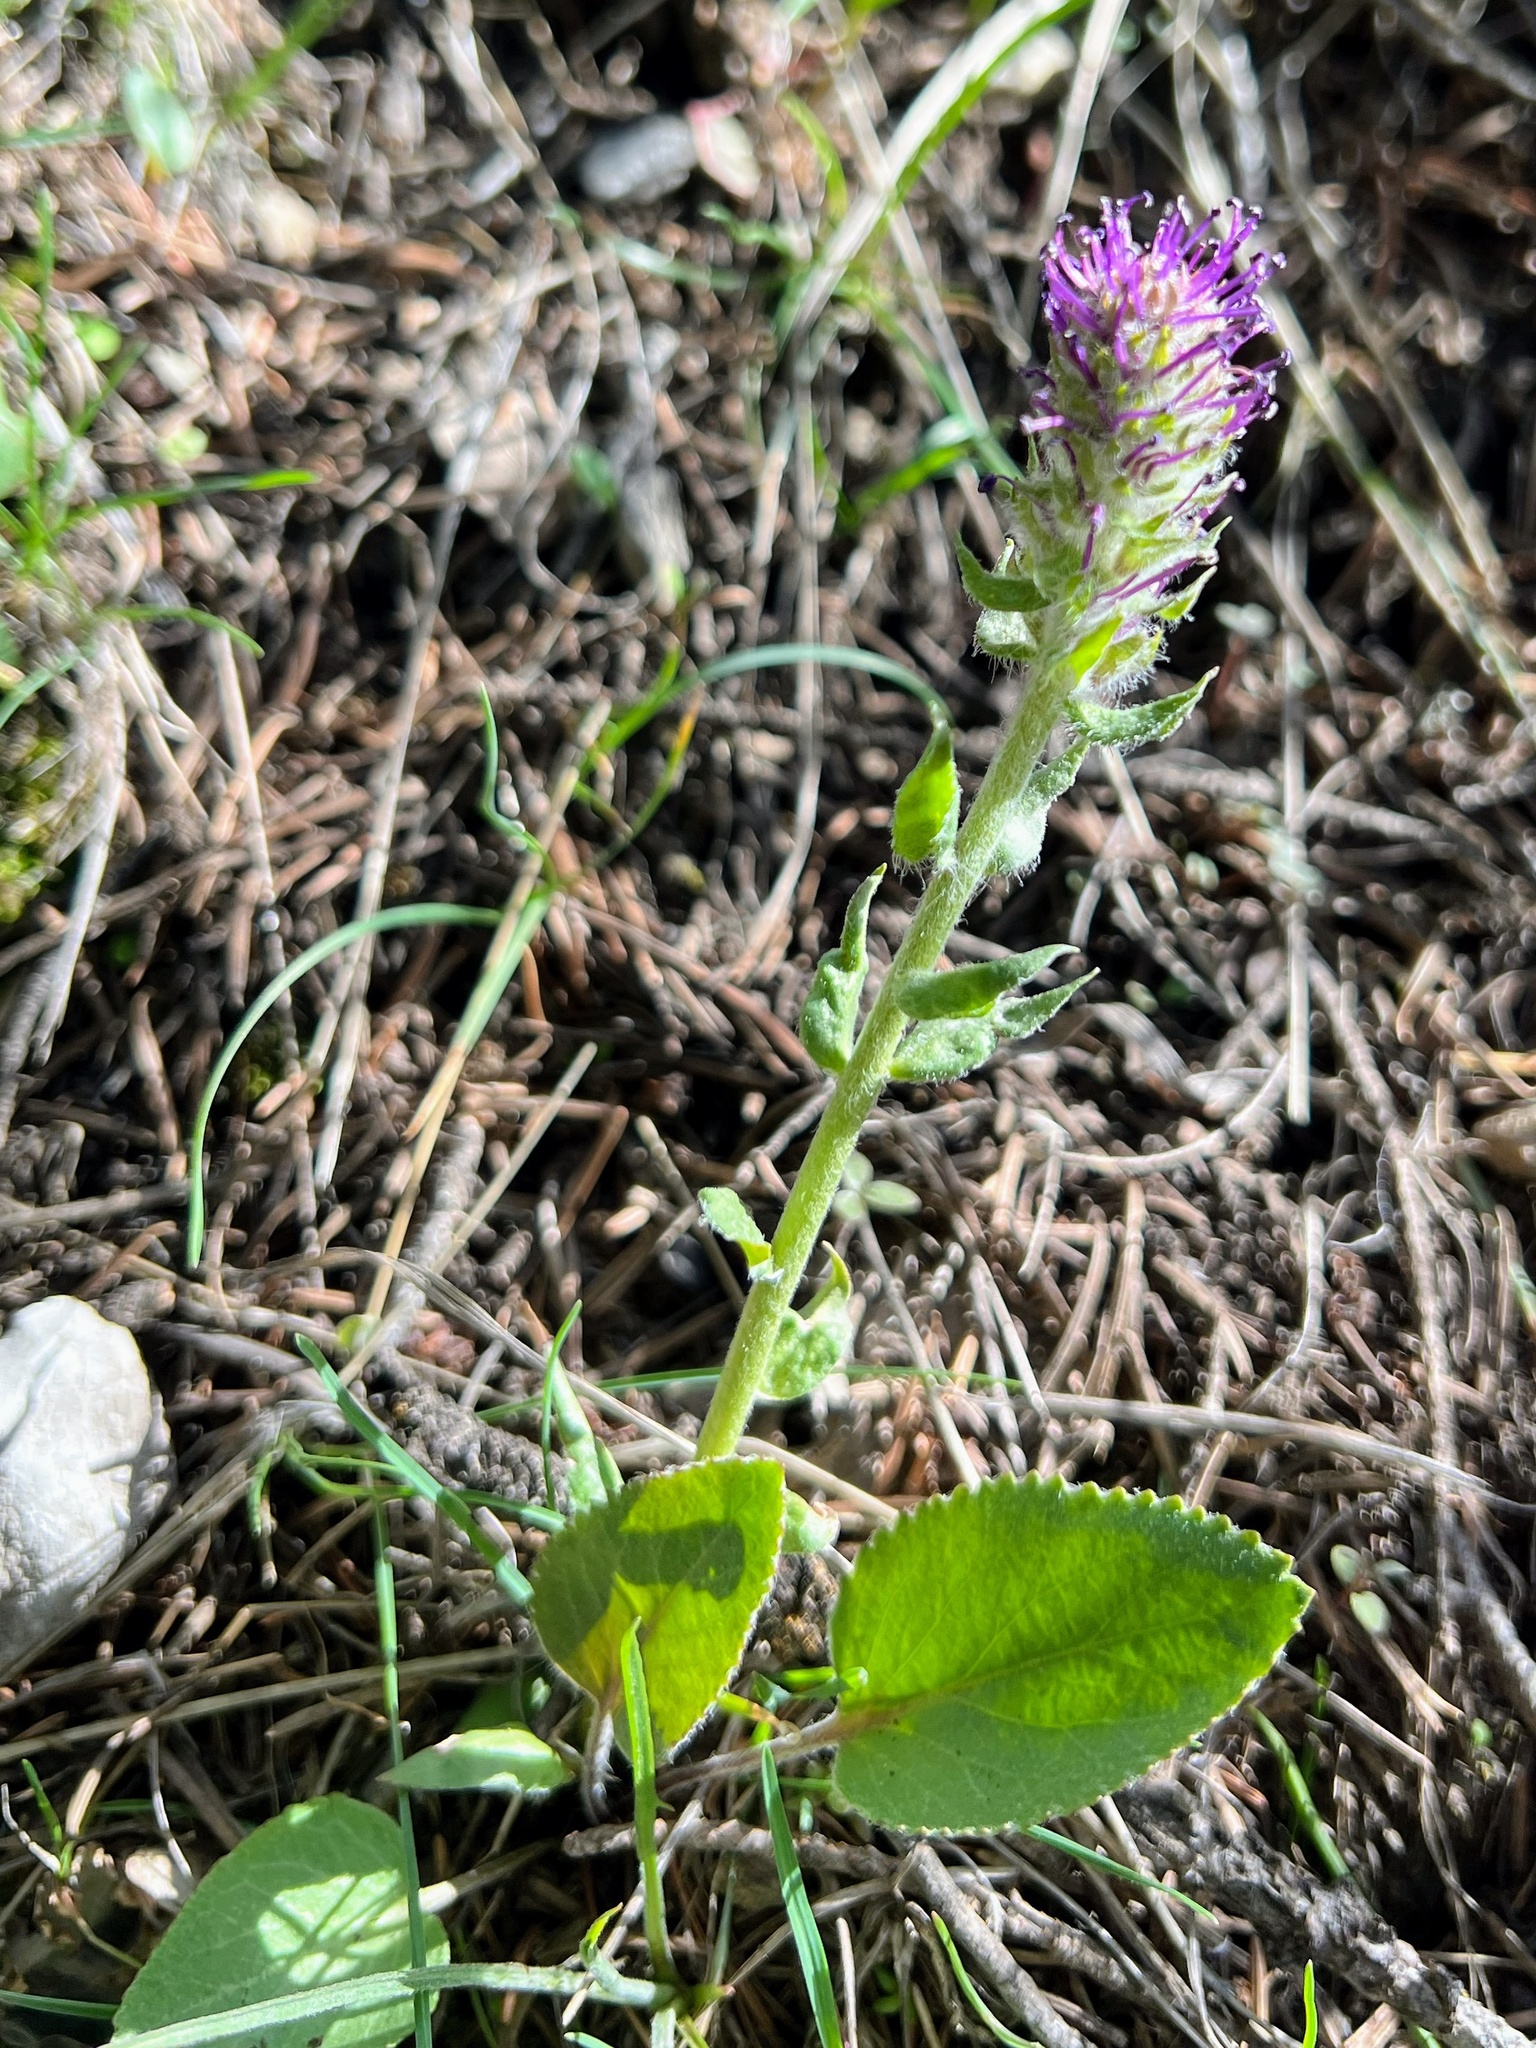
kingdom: Plantae
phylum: Tracheophyta
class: Magnoliopsida
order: Lamiales
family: Plantaginaceae
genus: Synthyris
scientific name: Synthyris wyomingensis
